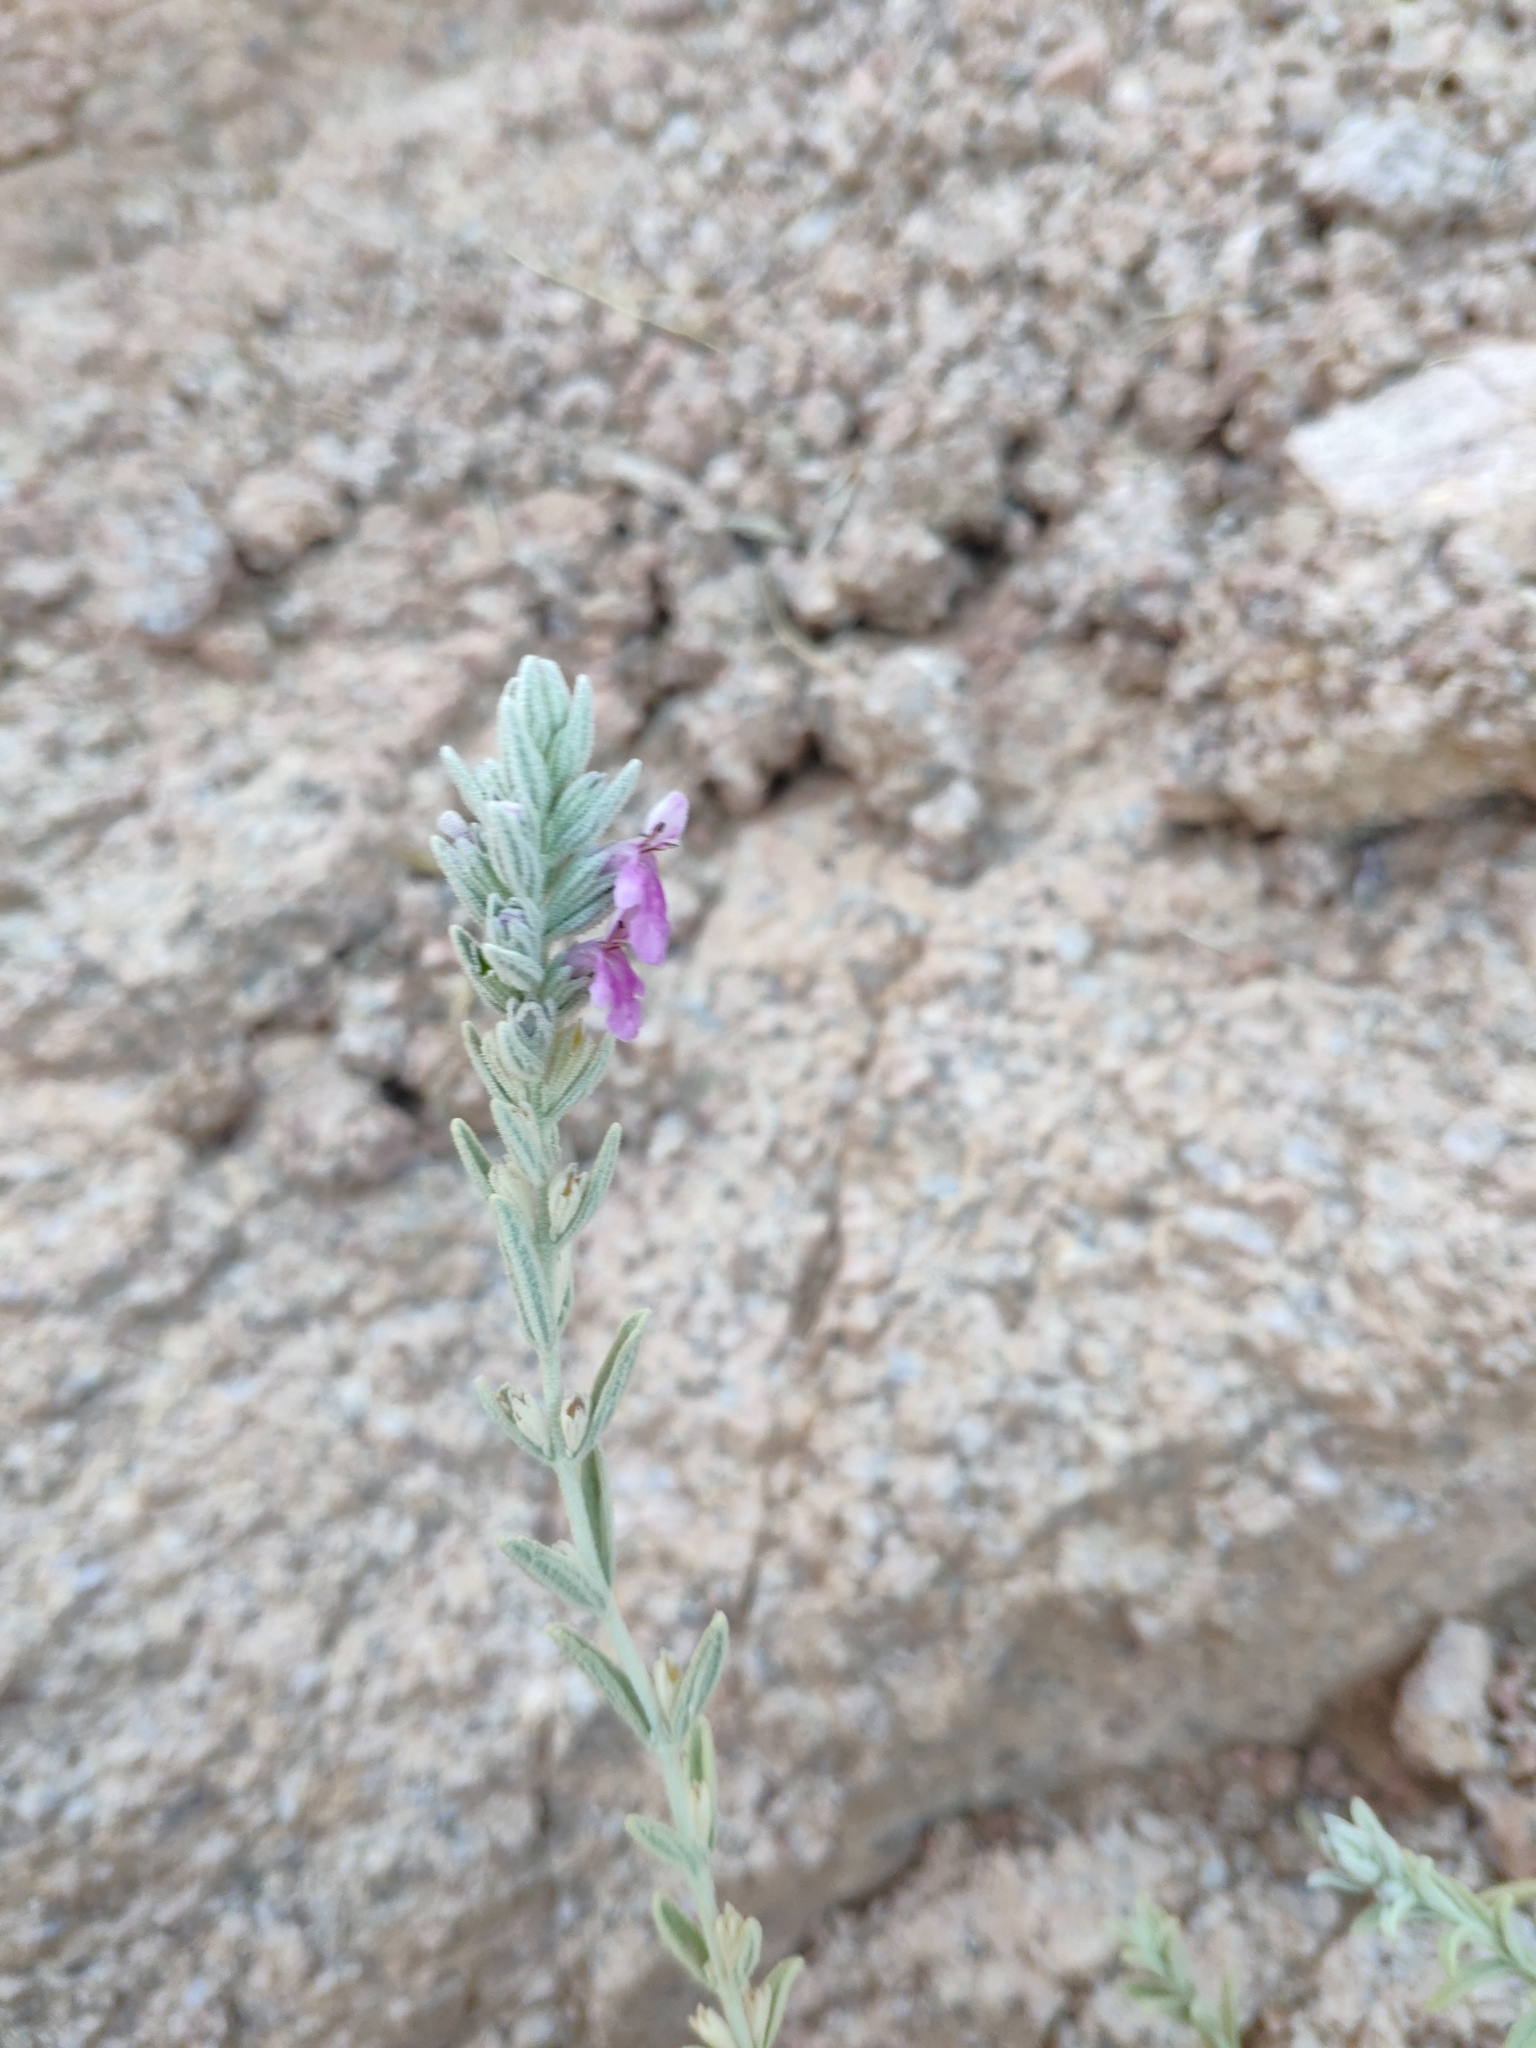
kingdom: Plantae
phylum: Tracheophyta
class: Magnoliopsida
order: Lamiales
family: Lamiaceae
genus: Stachys
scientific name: Stachys aegyptiaca
